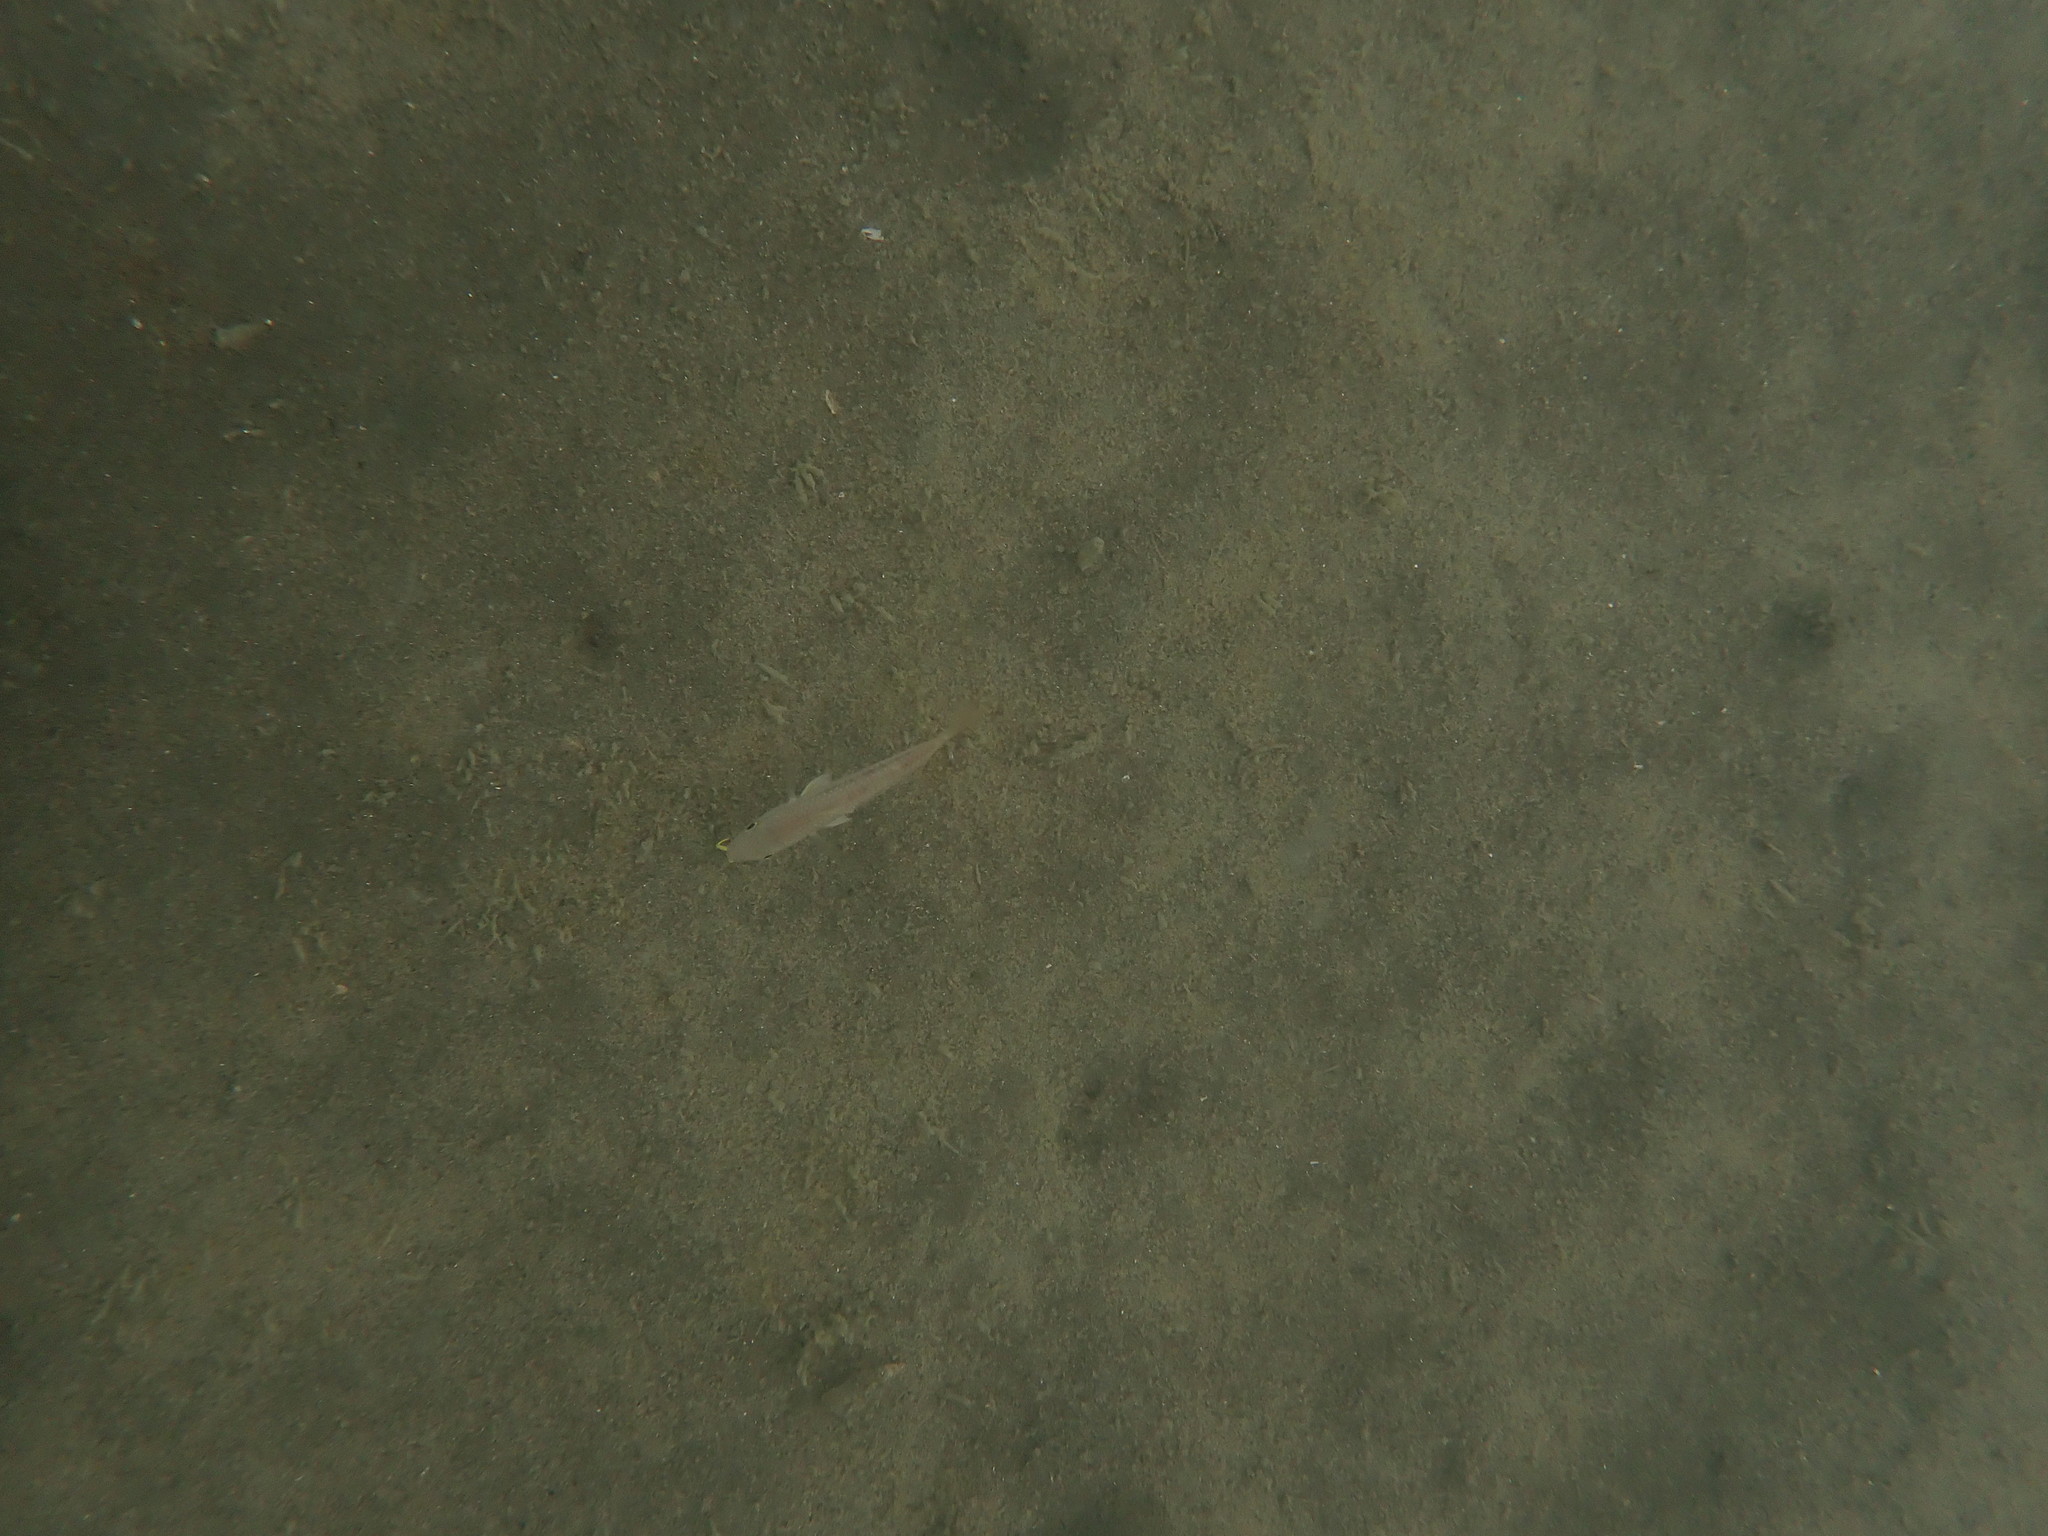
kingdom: Animalia
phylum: Chordata
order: Perciformes
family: Mullidae
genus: Upeneichthys
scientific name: Upeneichthys lineatus
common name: Red mullet
